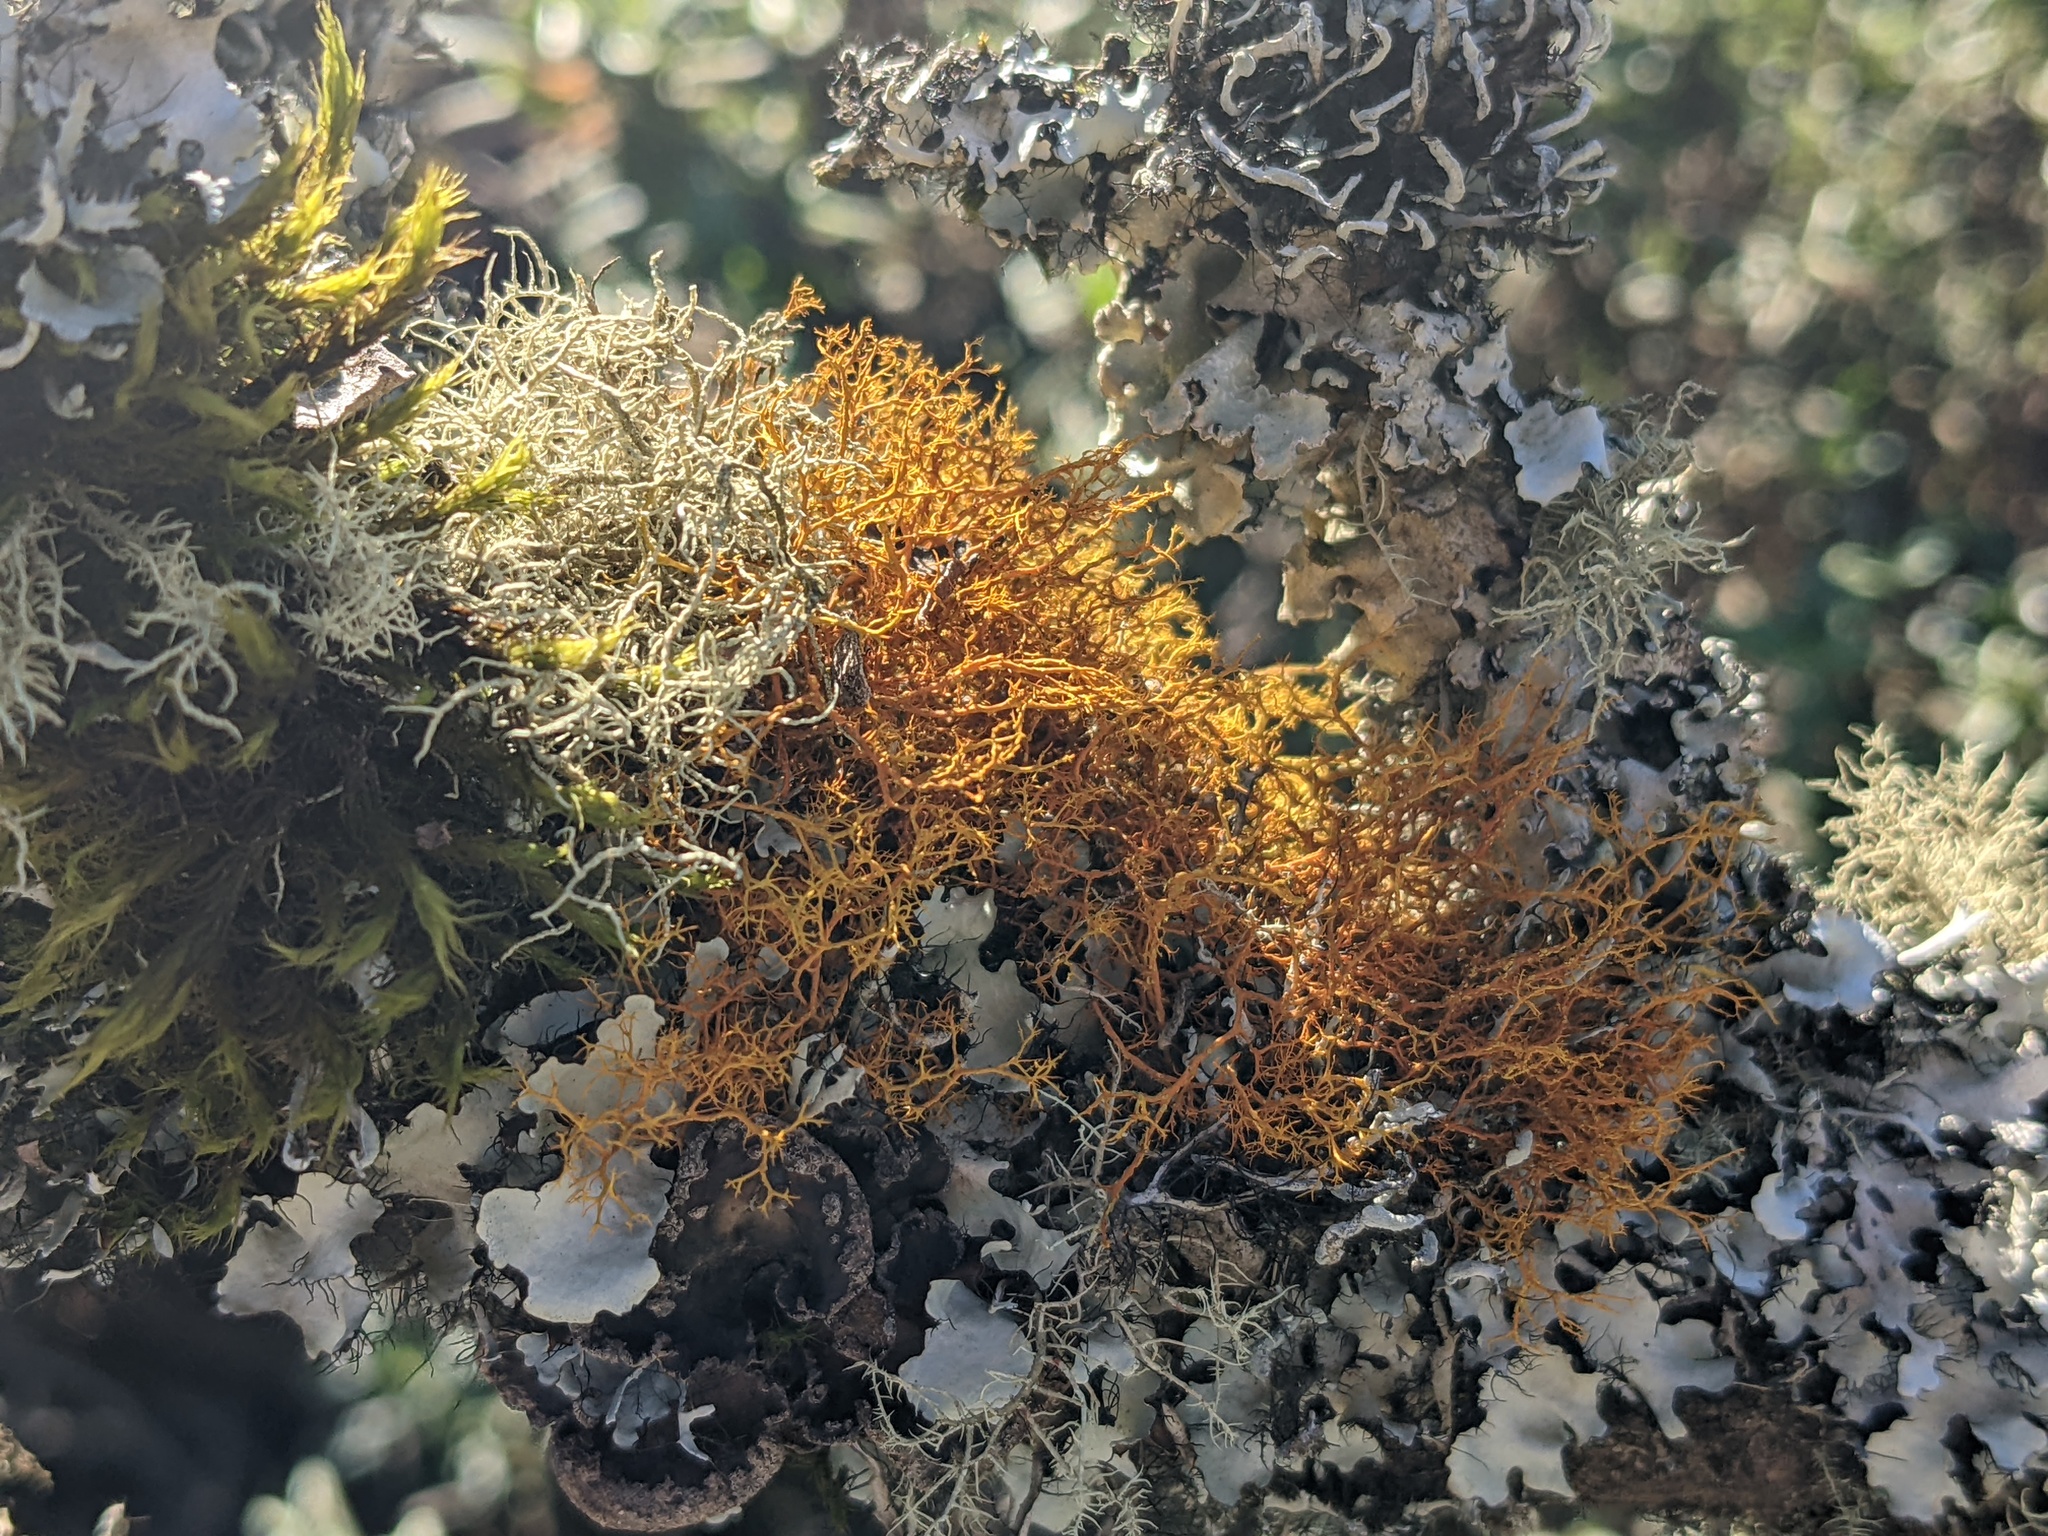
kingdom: Fungi
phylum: Ascomycota
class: Lecanoromycetes
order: Teloschistales
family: Teloschistaceae
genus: Teloschistes
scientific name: Teloschistes flavicans
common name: Golden hair-lichen
